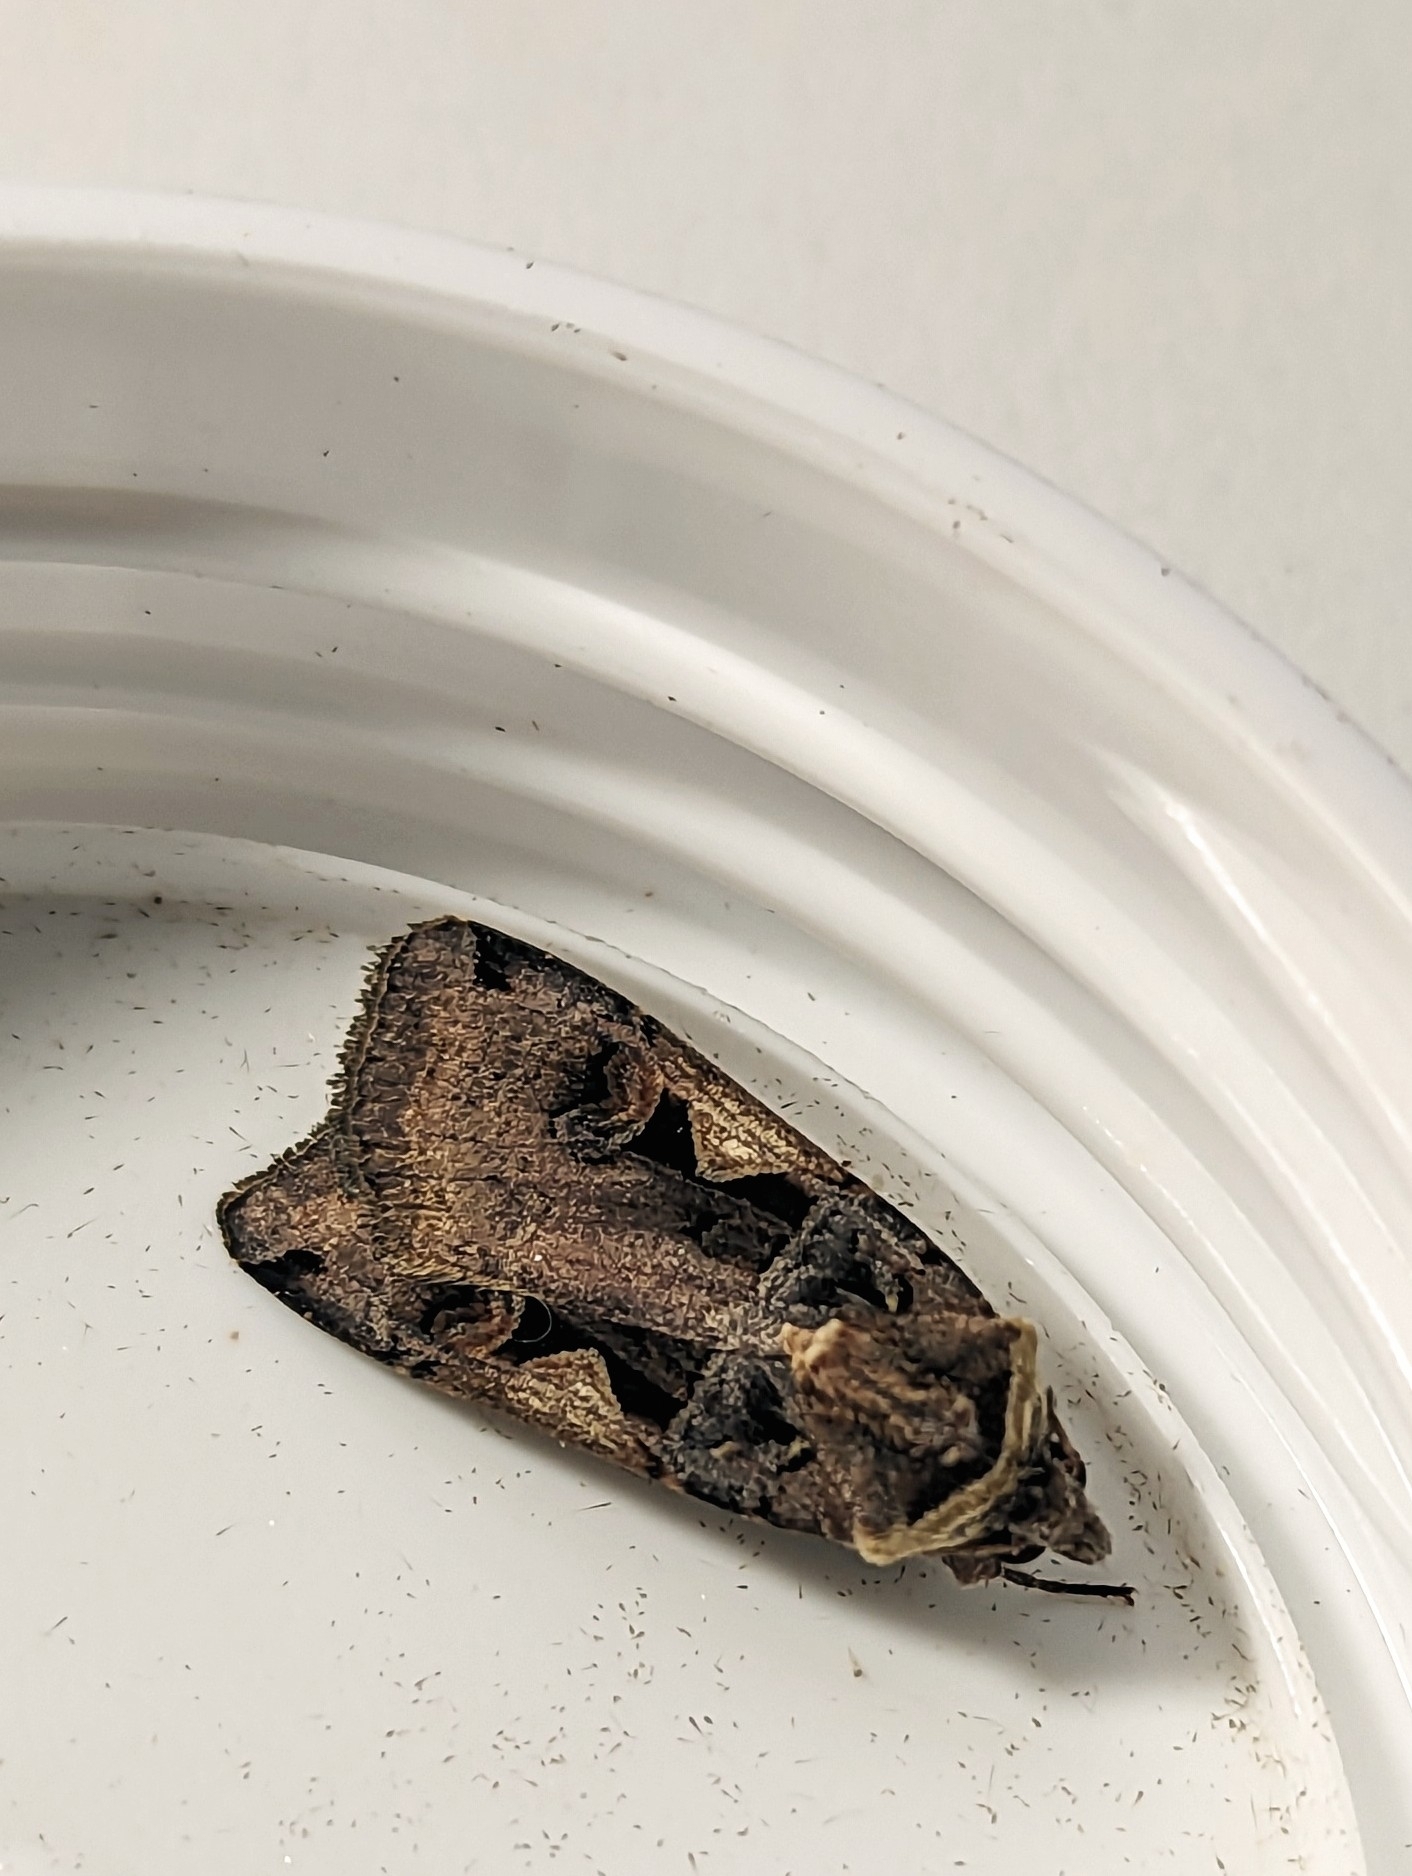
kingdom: Animalia
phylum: Arthropoda
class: Insecta
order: Lepidoptera
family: Noctuidae
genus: Xestia
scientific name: Xestia c-nigrum
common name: Setaceous hebrew character
